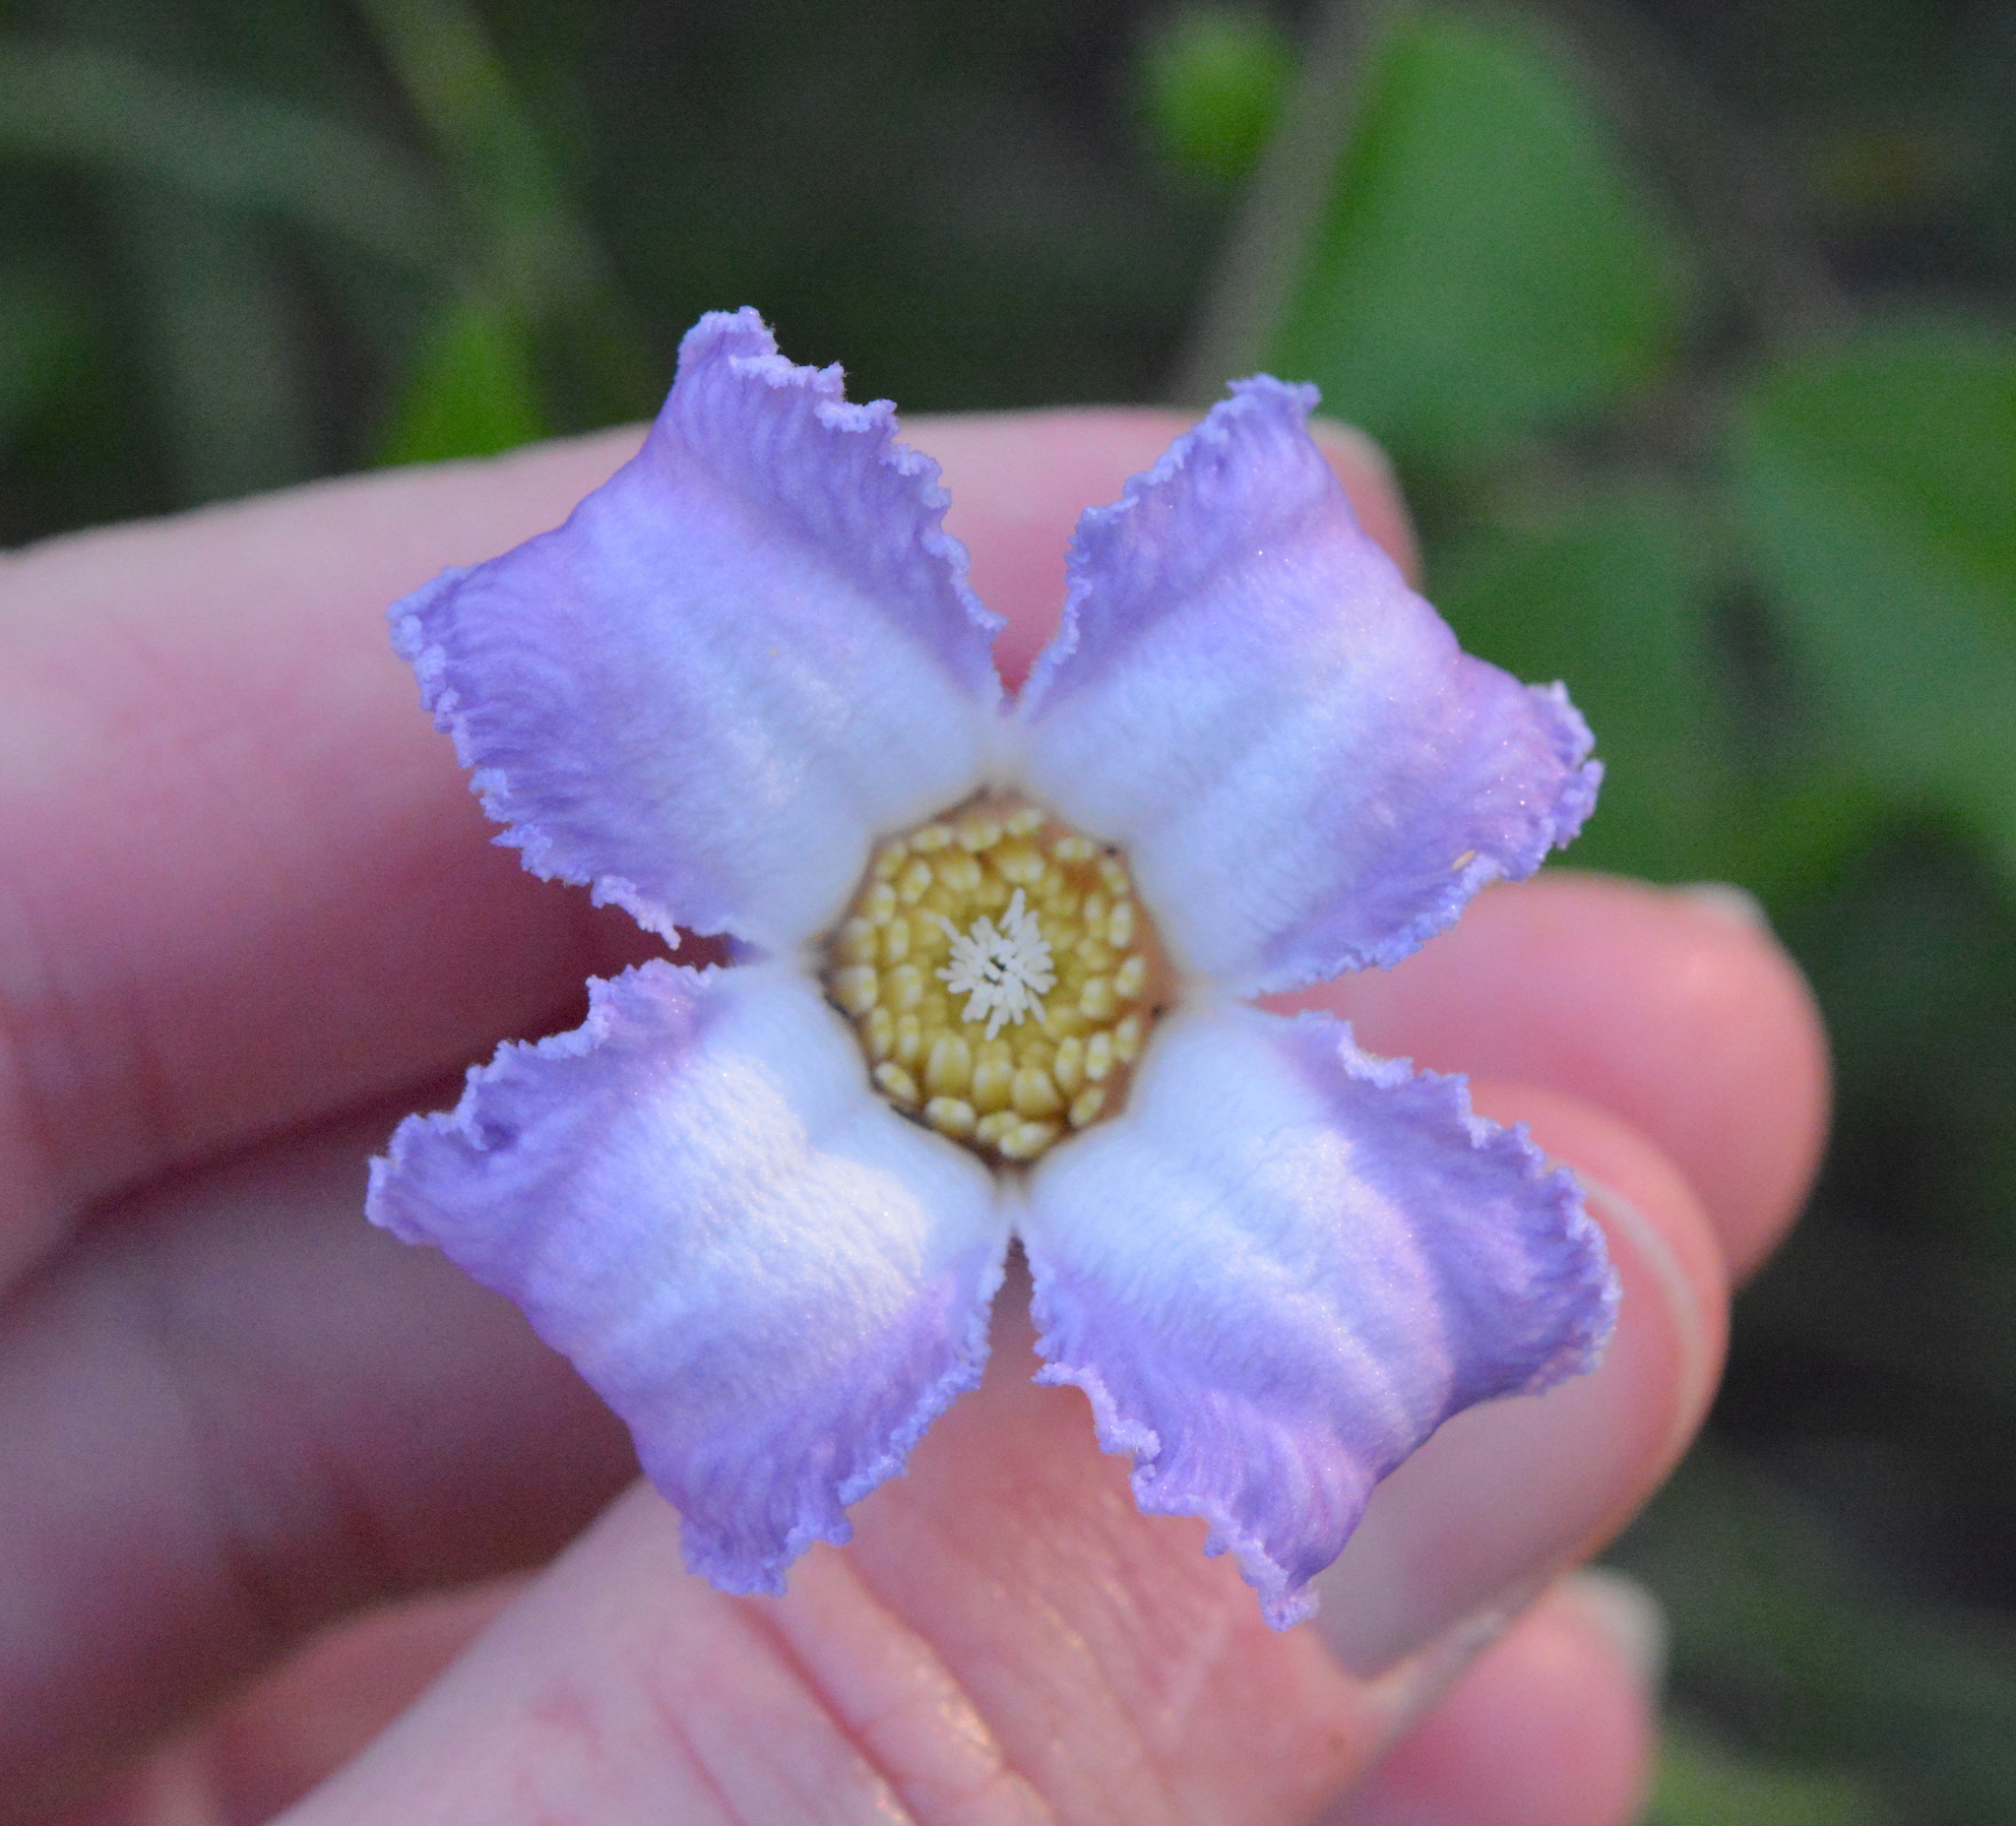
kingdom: Plantae
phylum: Tracheophyta
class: Magnoliopsida
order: Ranunculales
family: Ranunculaceae
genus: Clematis
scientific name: Clematis crispa
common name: Curly clematis
